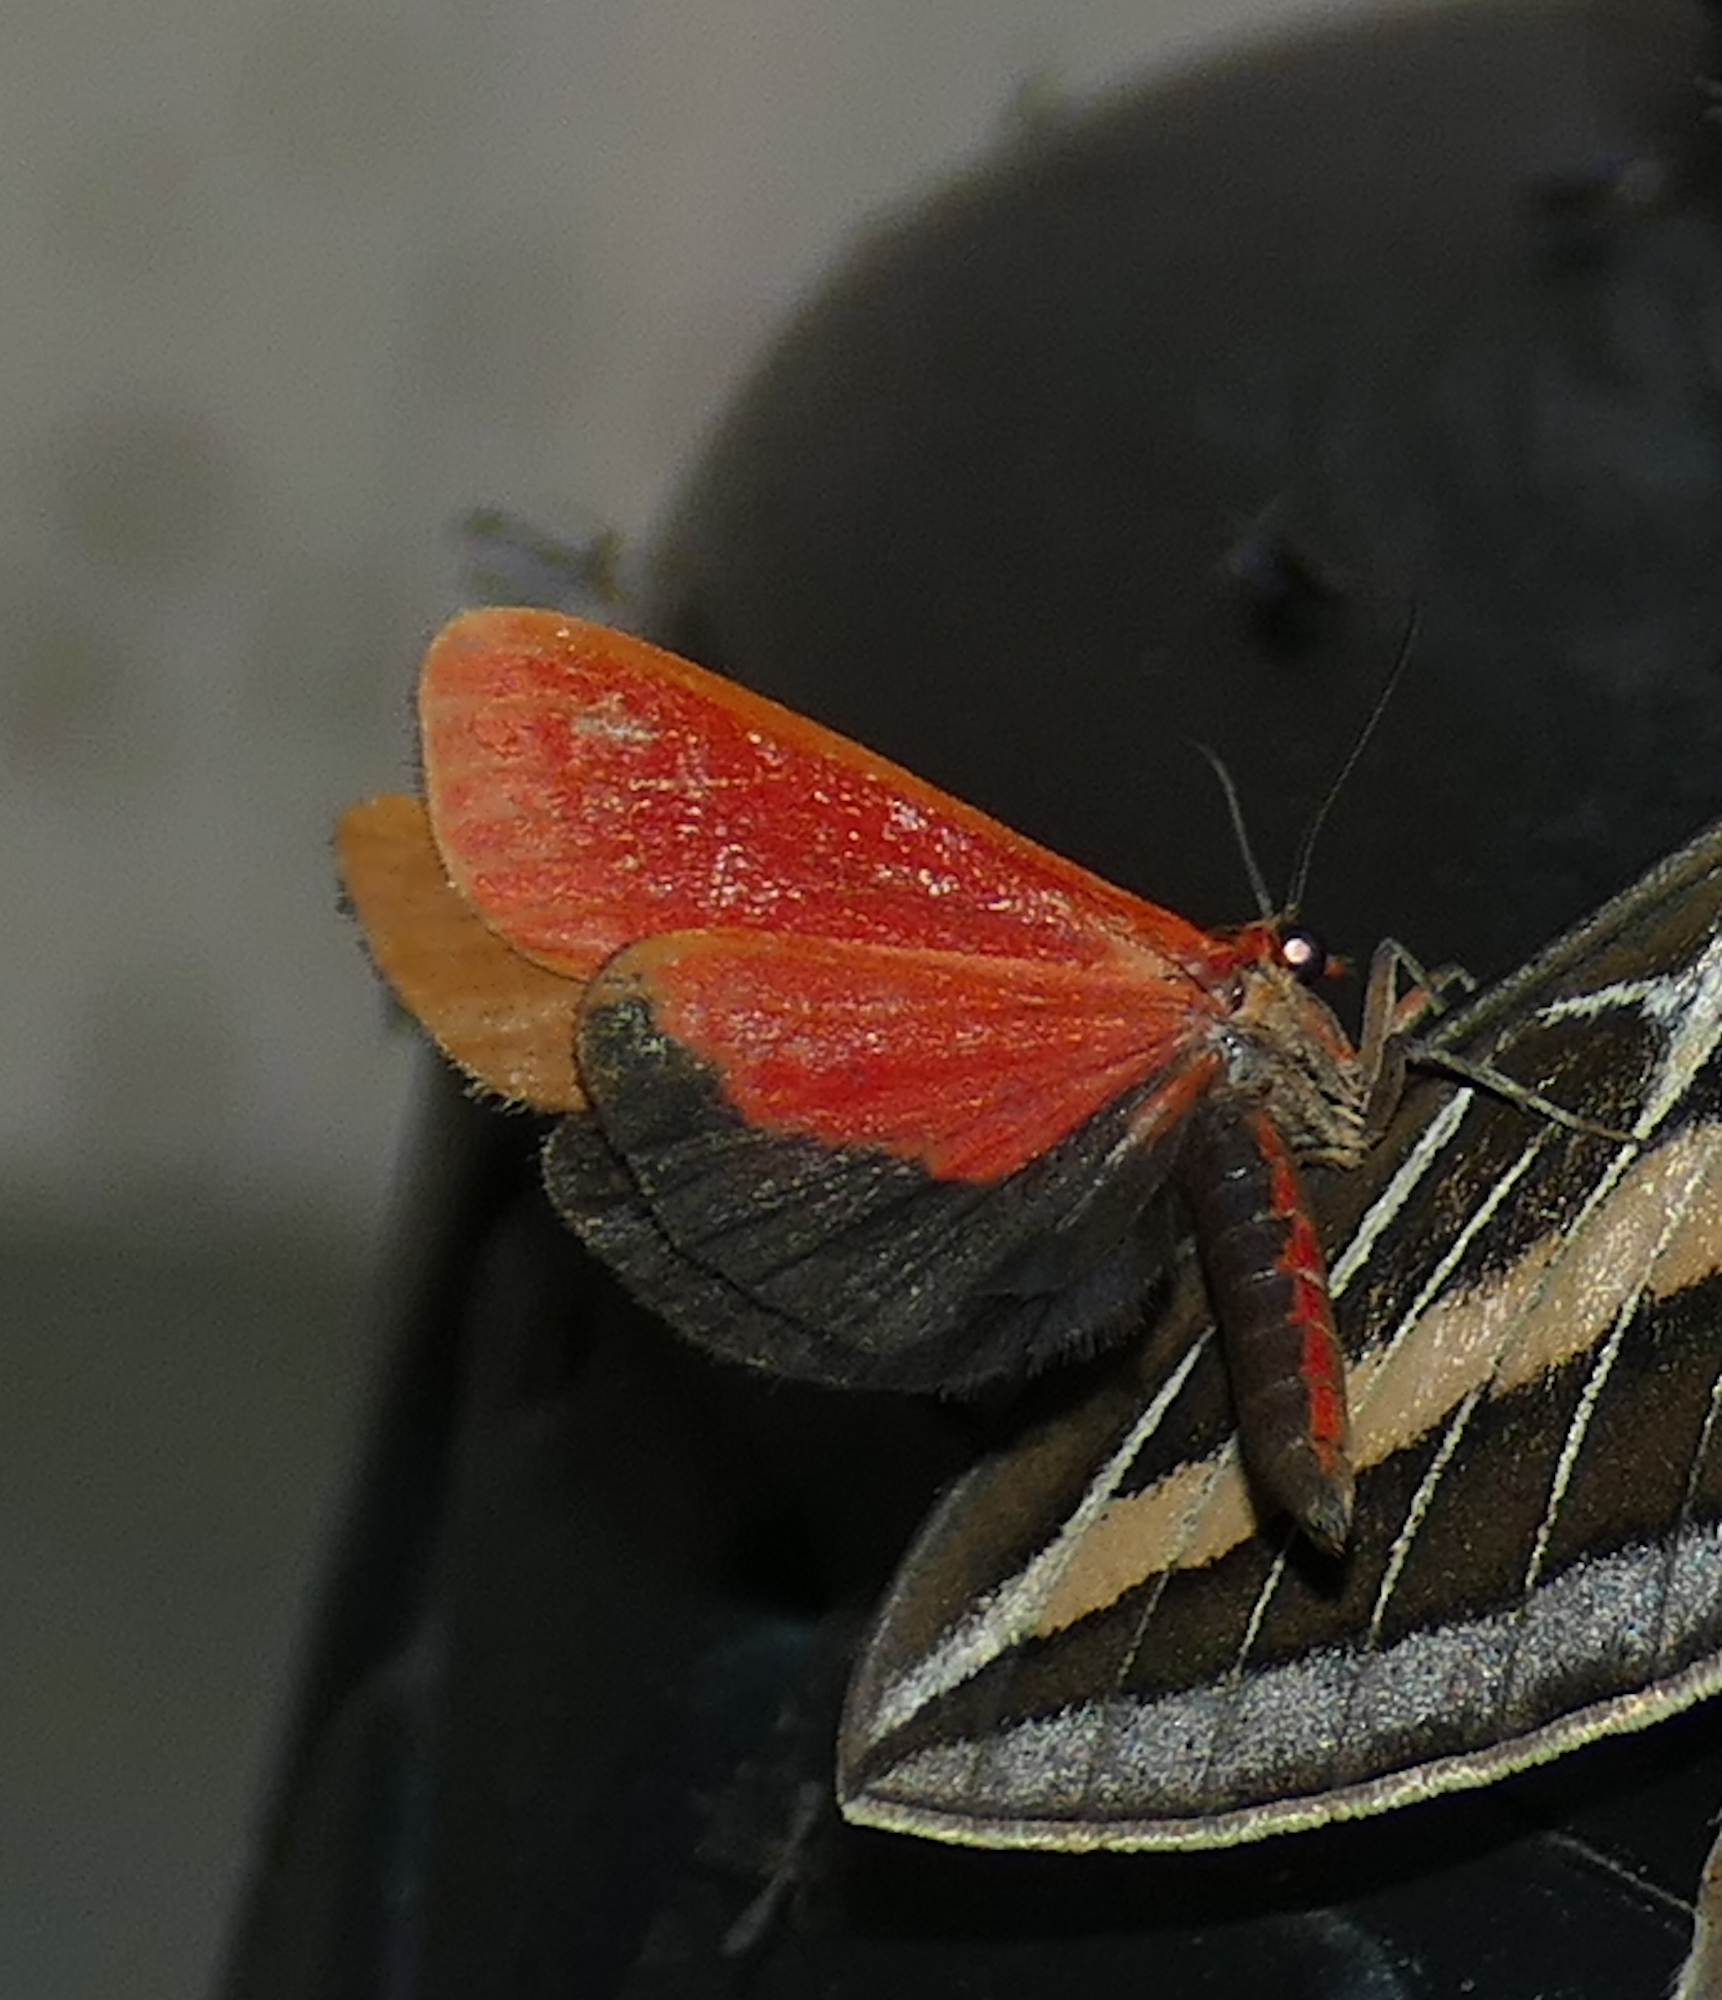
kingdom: Animalia
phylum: Arthropoda
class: Insecta
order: Lepidoptera
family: Erebidae
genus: Virbia
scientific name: Virbia ostenta
